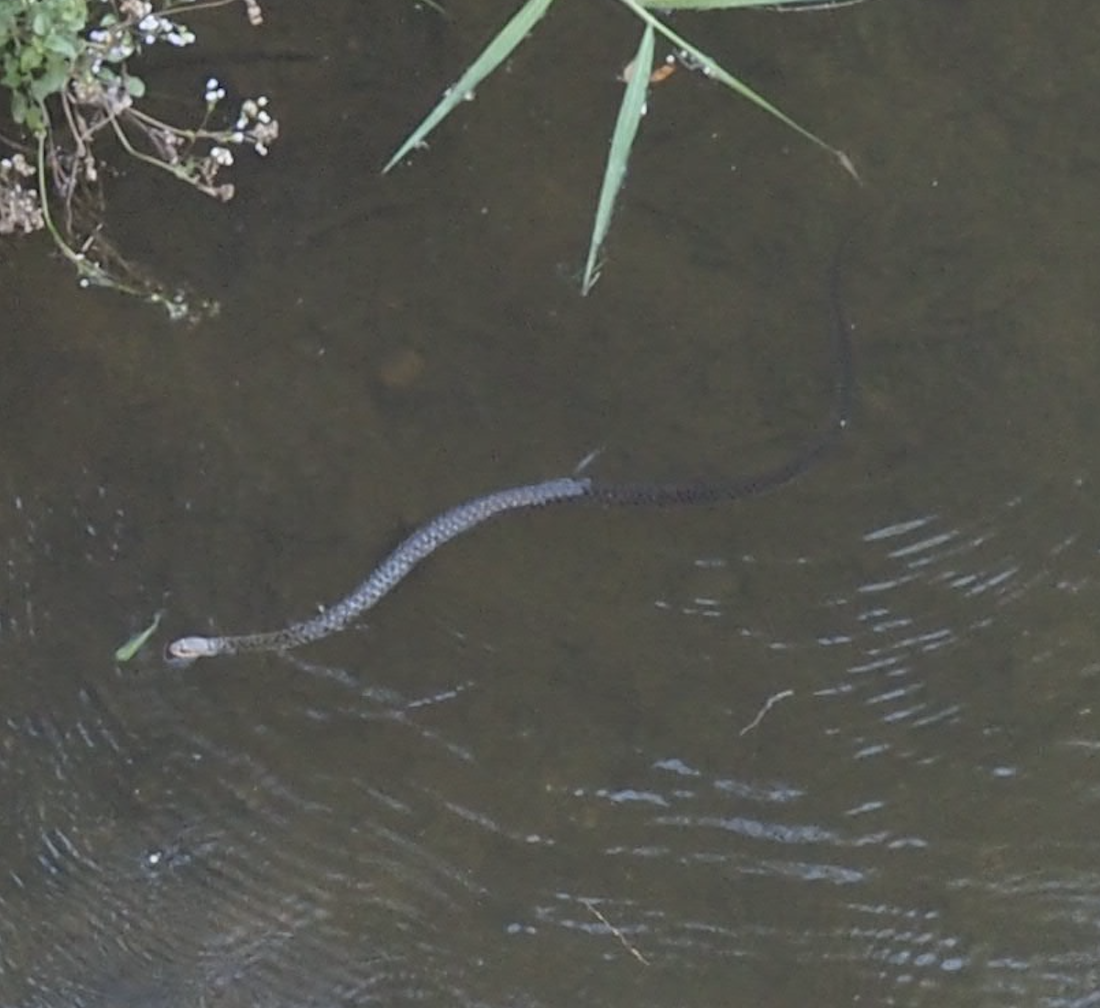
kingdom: Animalia
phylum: Chordata
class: Squamata
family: Colubridae
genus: Tropidonophis
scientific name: Tropidonophis mairii
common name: Common keelback
